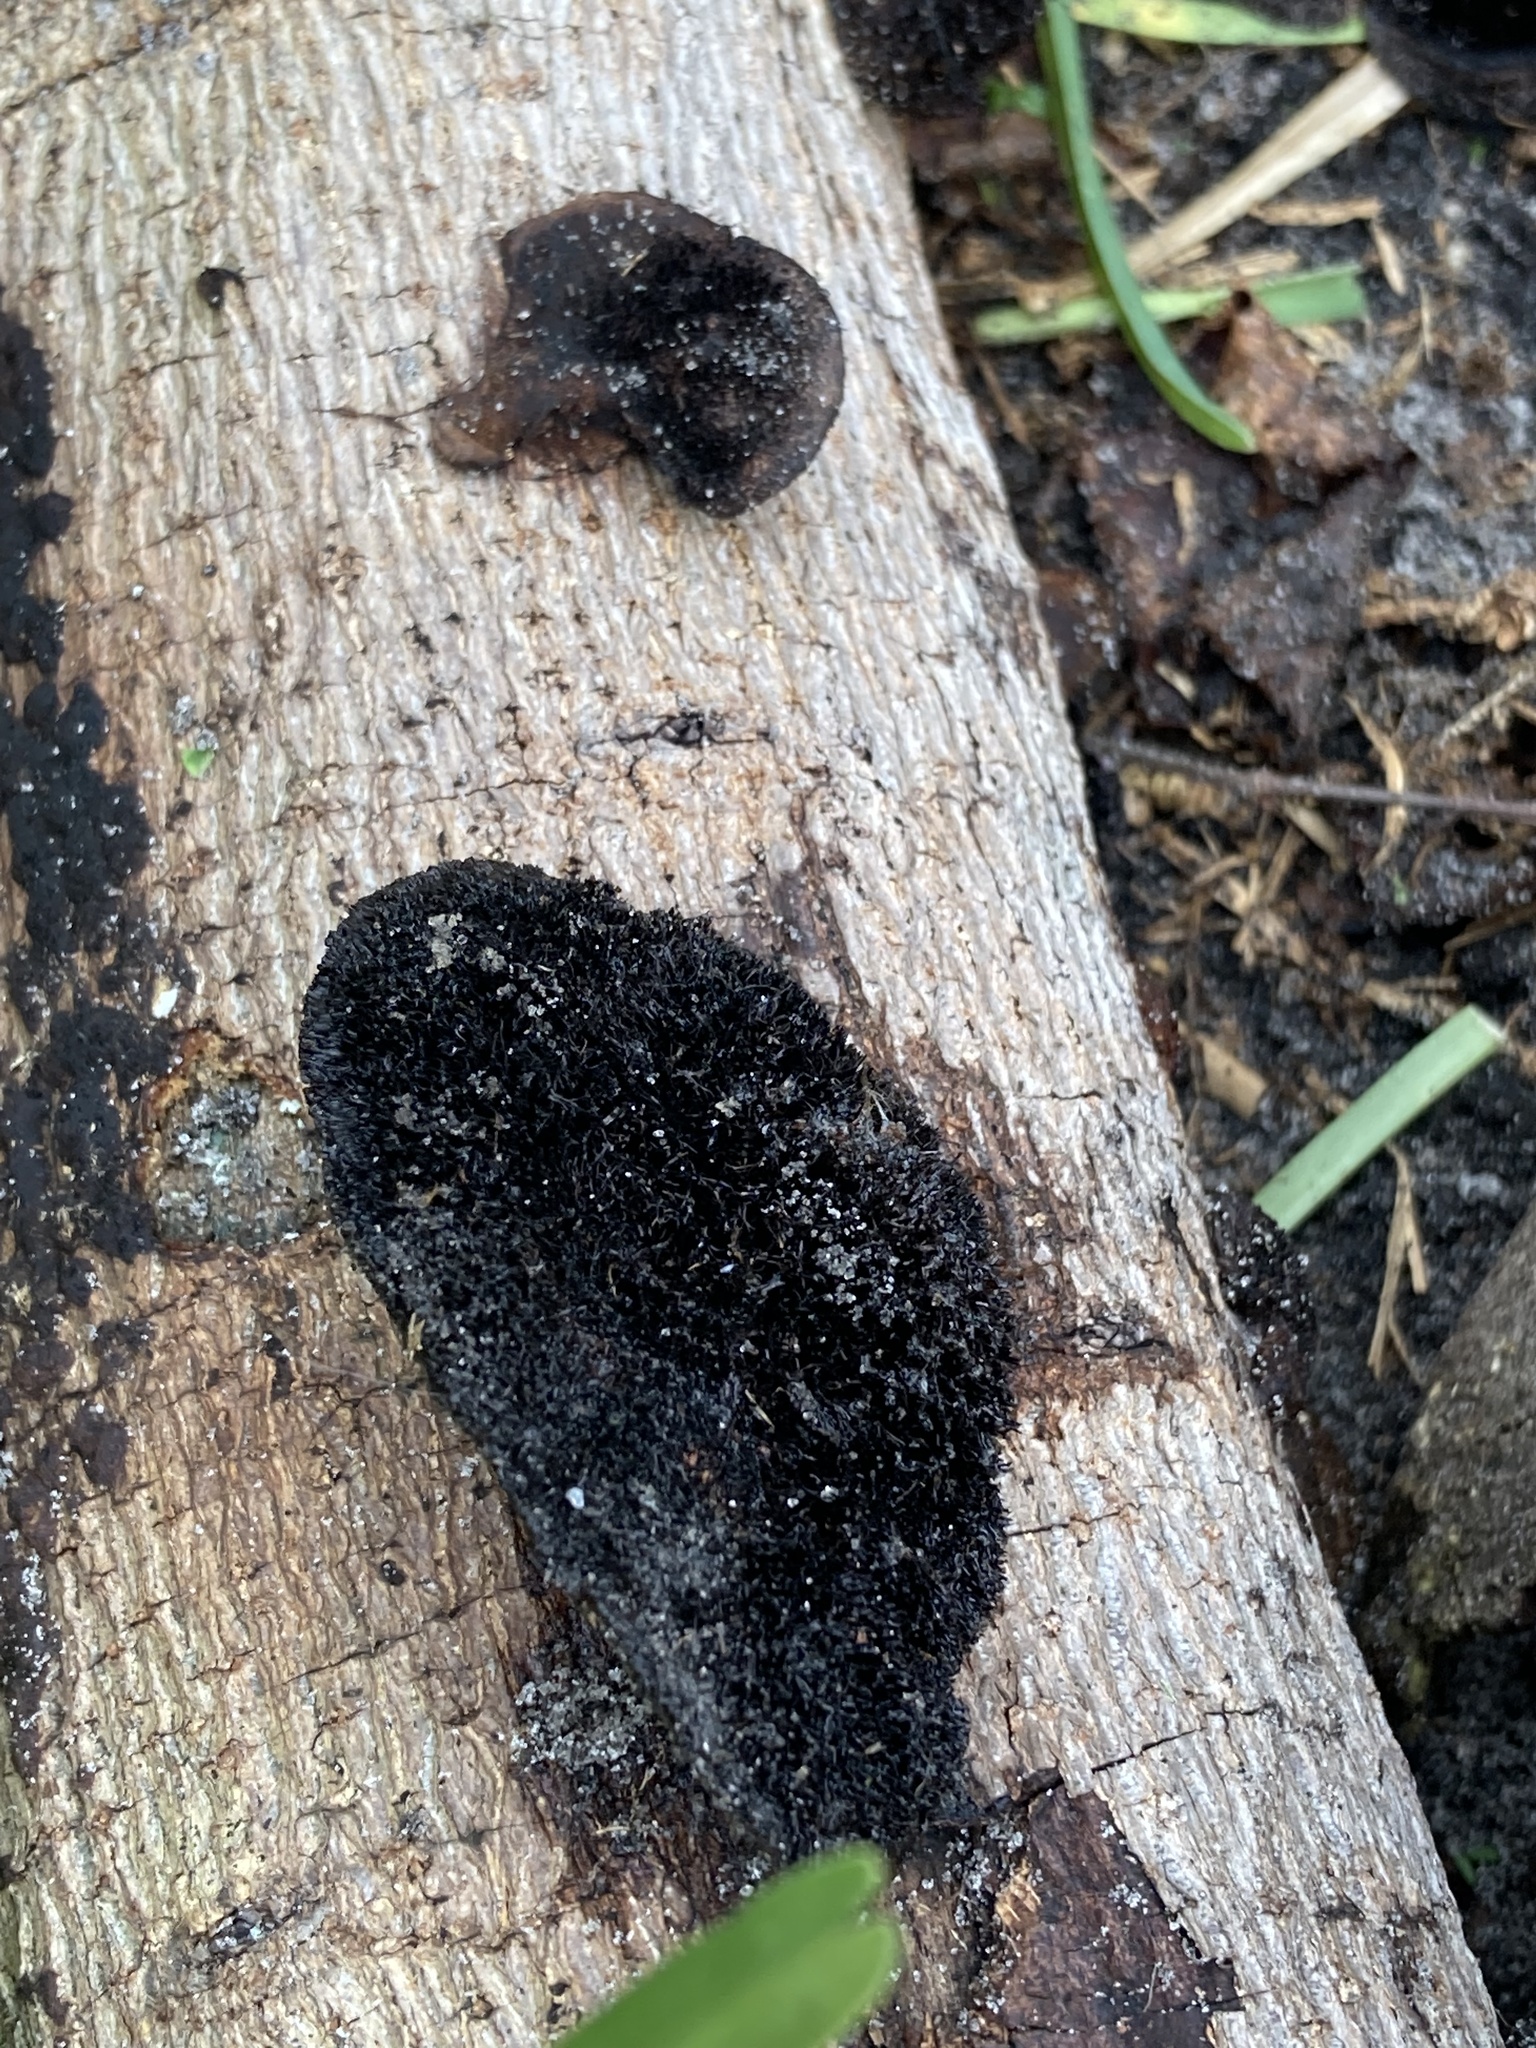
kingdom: Fungi
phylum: Basidiomycota
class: Agaricomycetes
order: Polyporales
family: Cerrenaceae
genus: Cerrena
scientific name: Cerrena hydnoides
